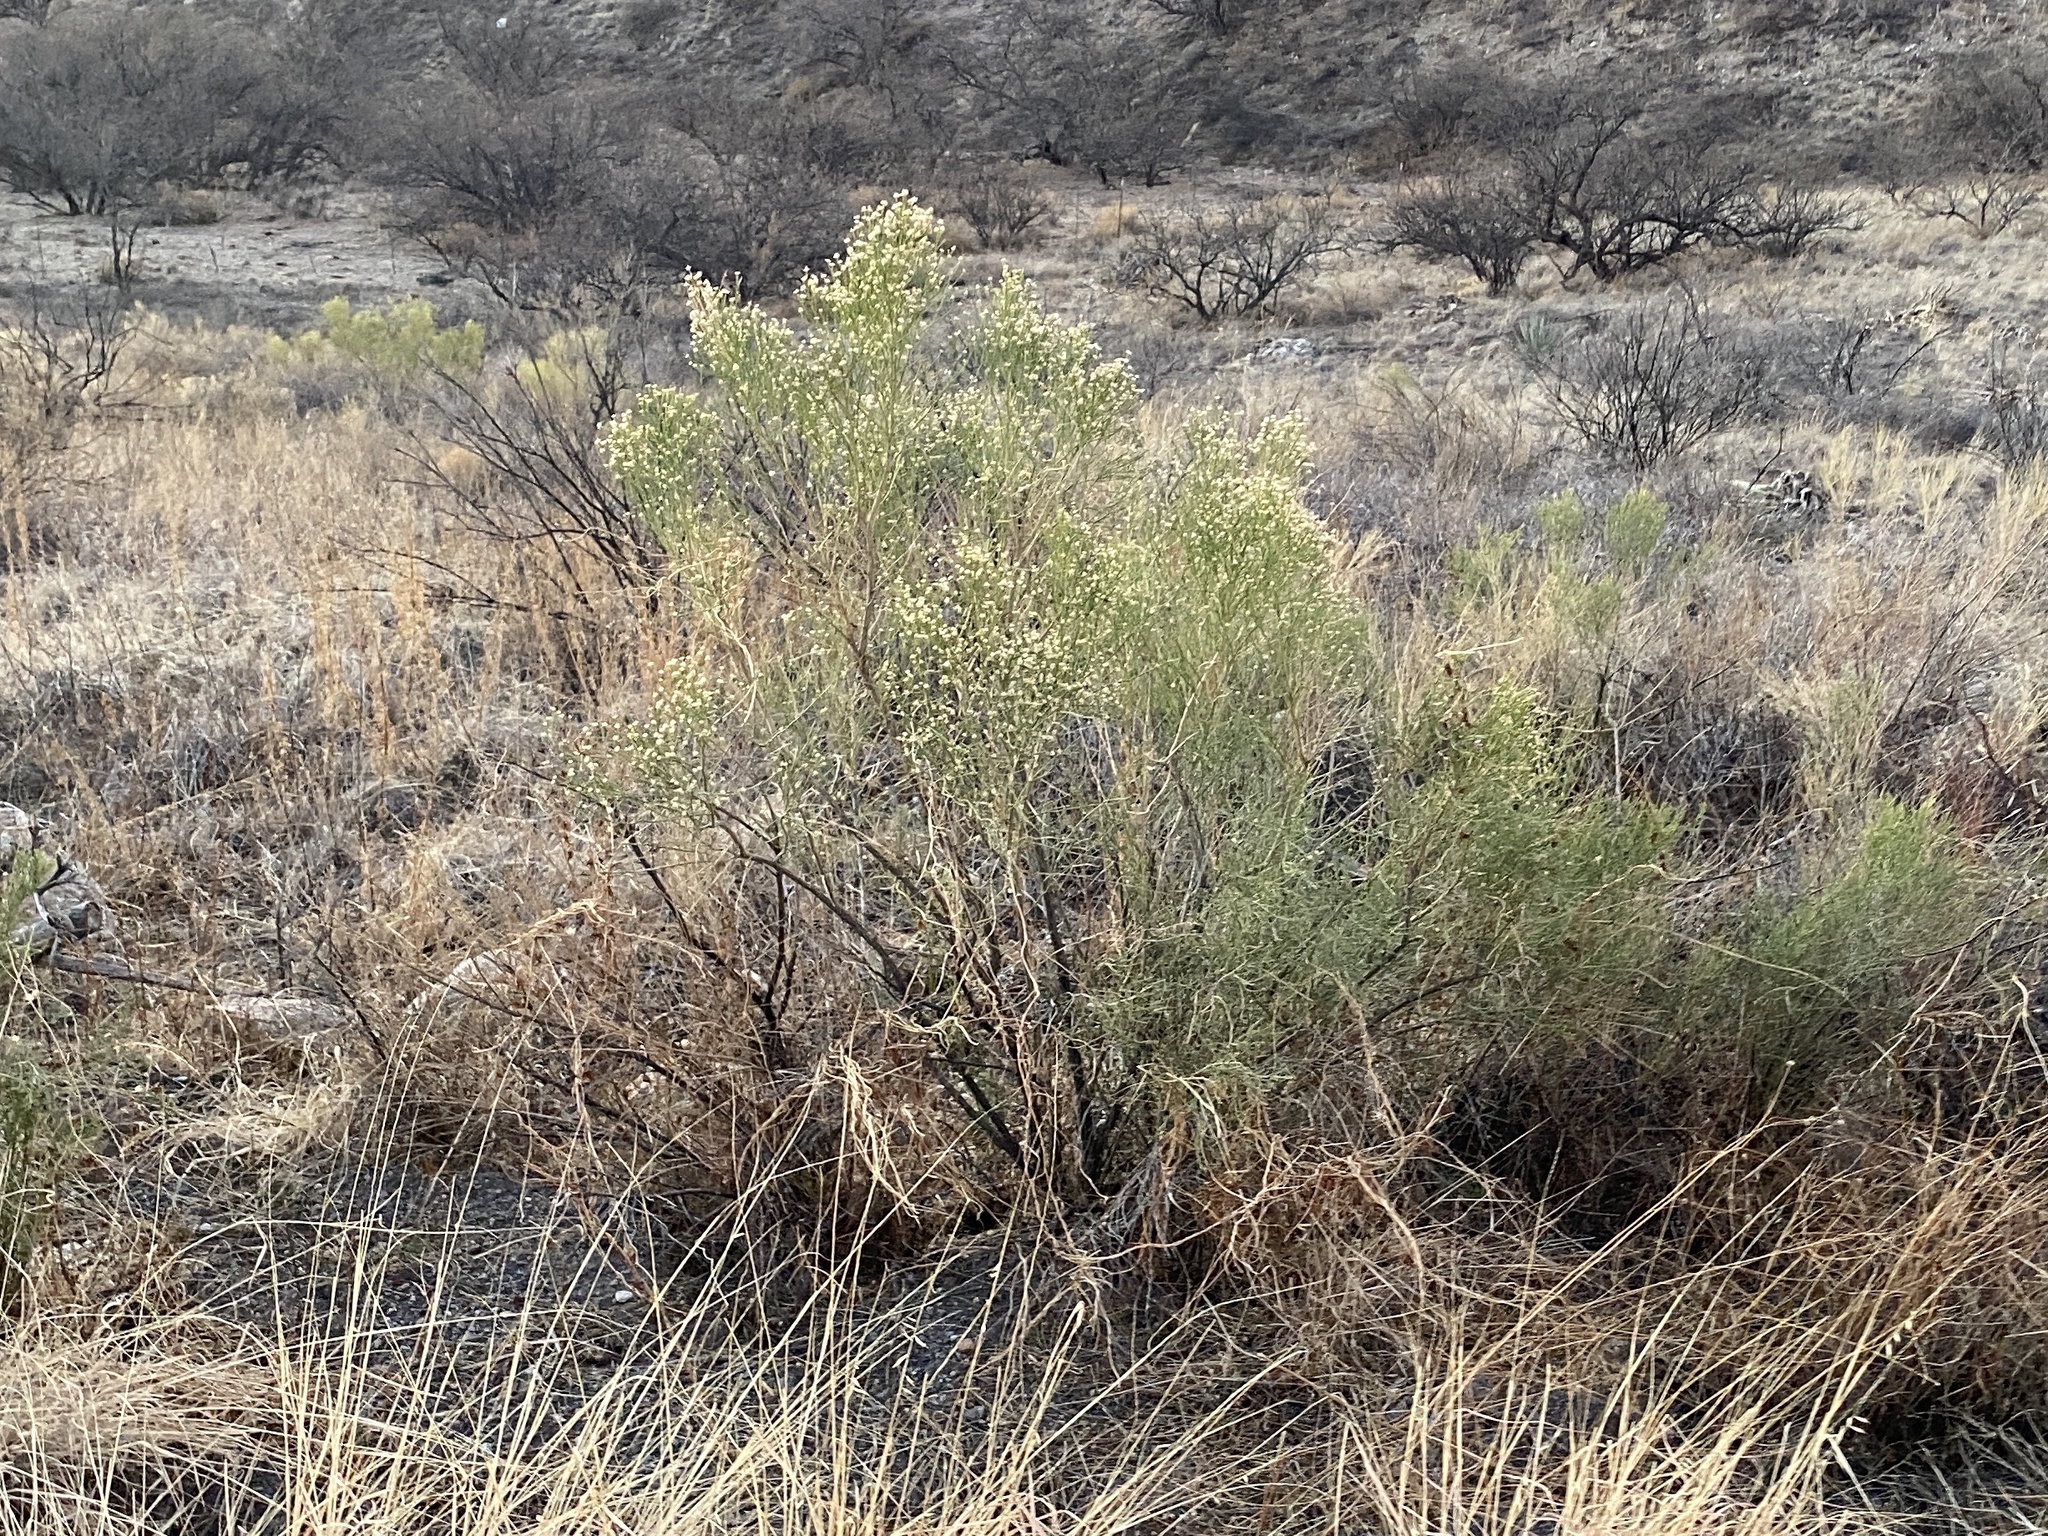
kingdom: Plantae
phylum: Tracheophyta
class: Magnoliopsida
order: Asterales
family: Asteraceae
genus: Baccharis
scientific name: Baccharis sarothroides
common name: Desert-broom
